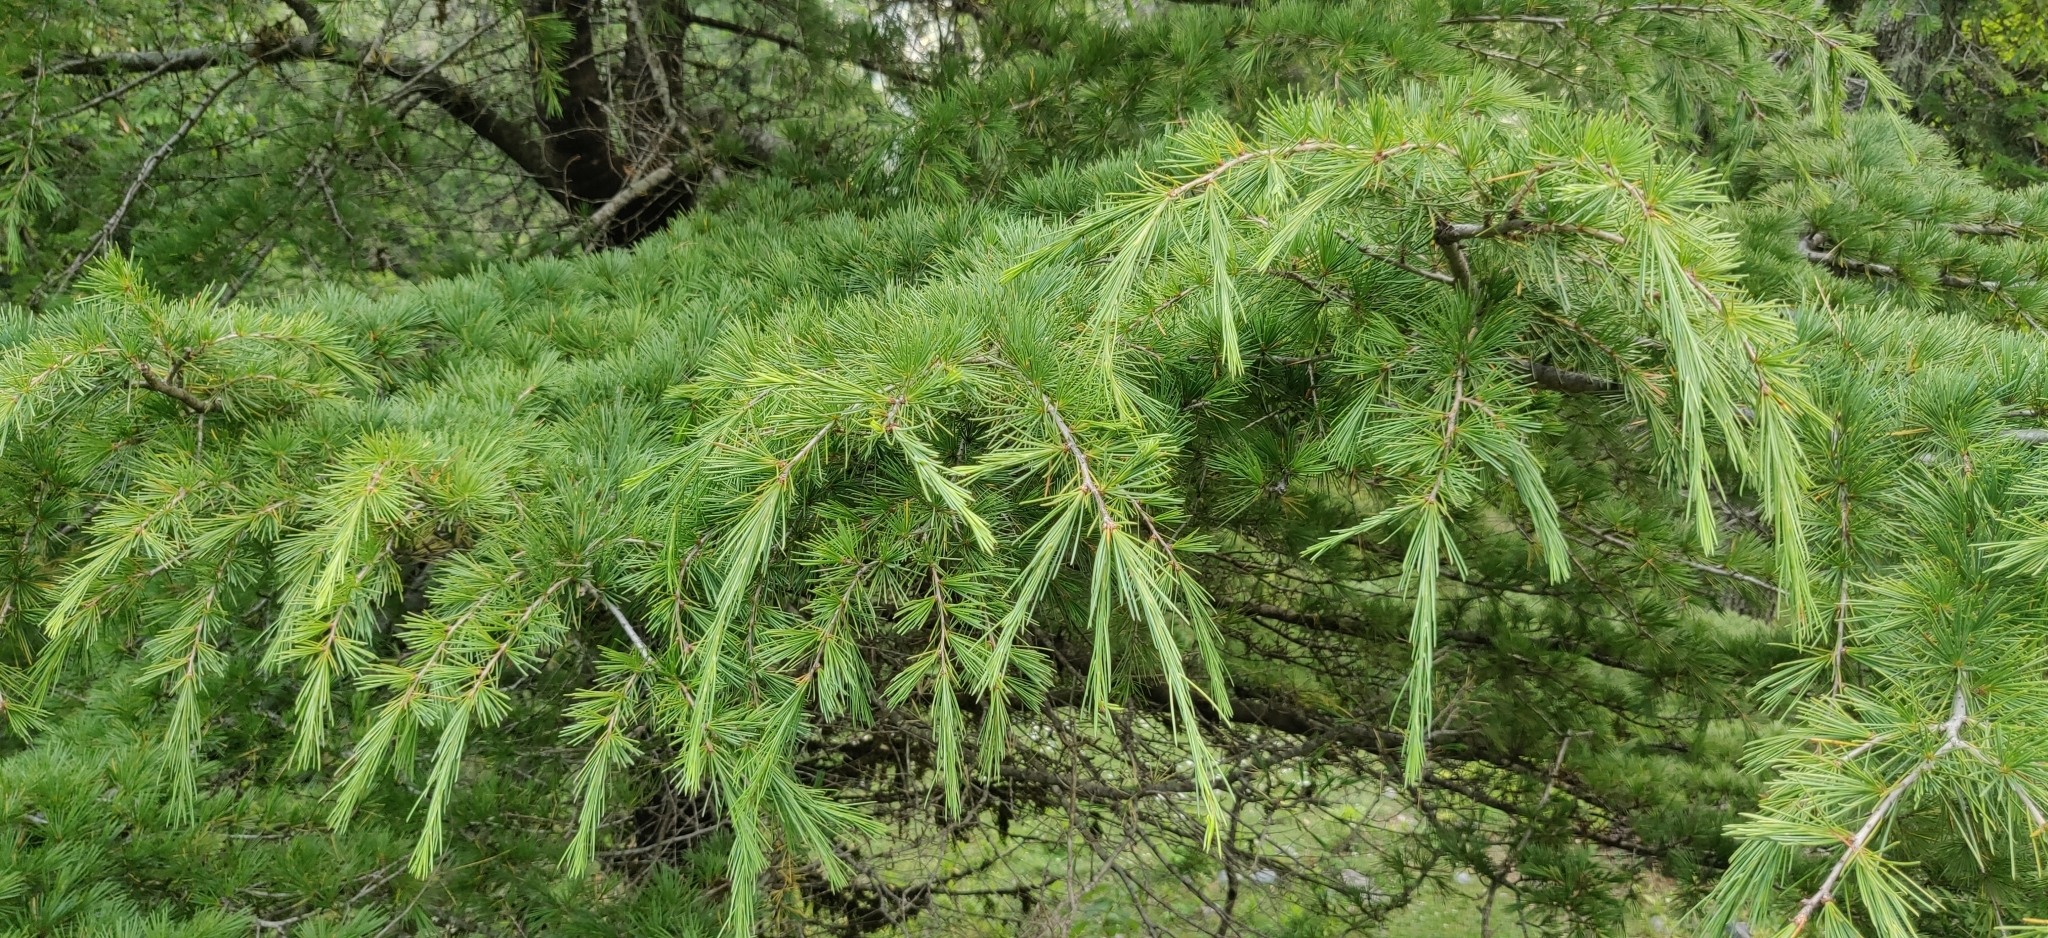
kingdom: Plantae
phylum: Tracheophyta
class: Pinopsida
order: Pinales
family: Pinaceae
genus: Cedrus
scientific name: Cedrus deodara
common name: Deodar
